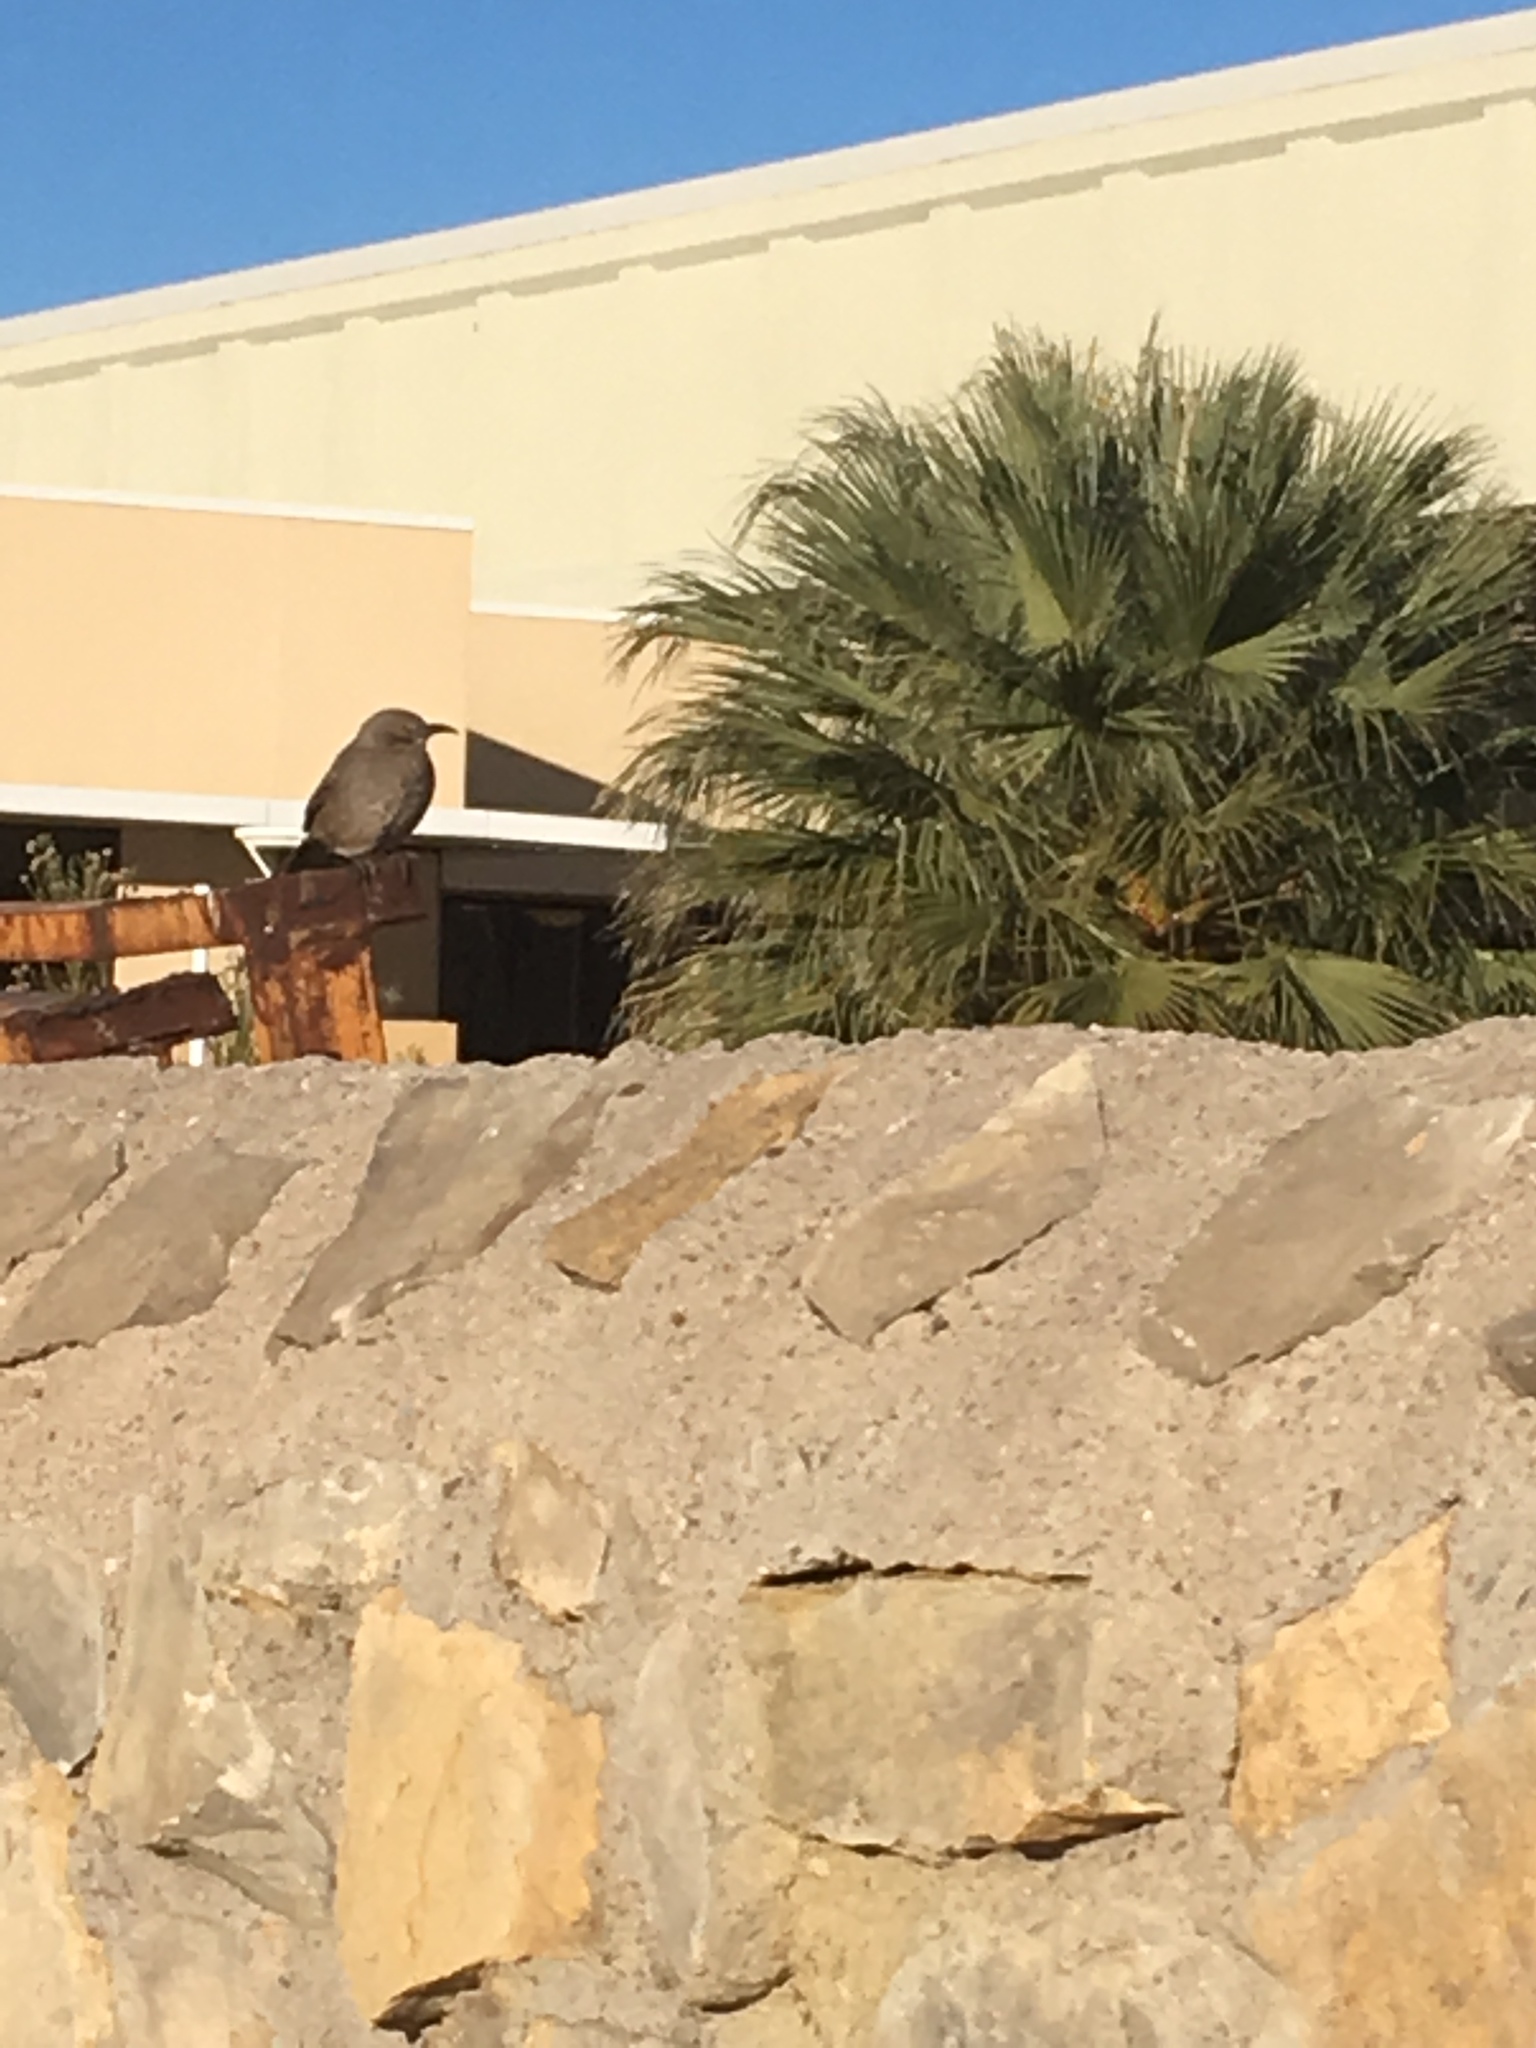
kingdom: Animalia
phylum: Chordata
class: Aves
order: Passeriformes
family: Mimidae
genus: Toxostoma
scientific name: Toxostoma curvirostre
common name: Curve-billed thrasher
